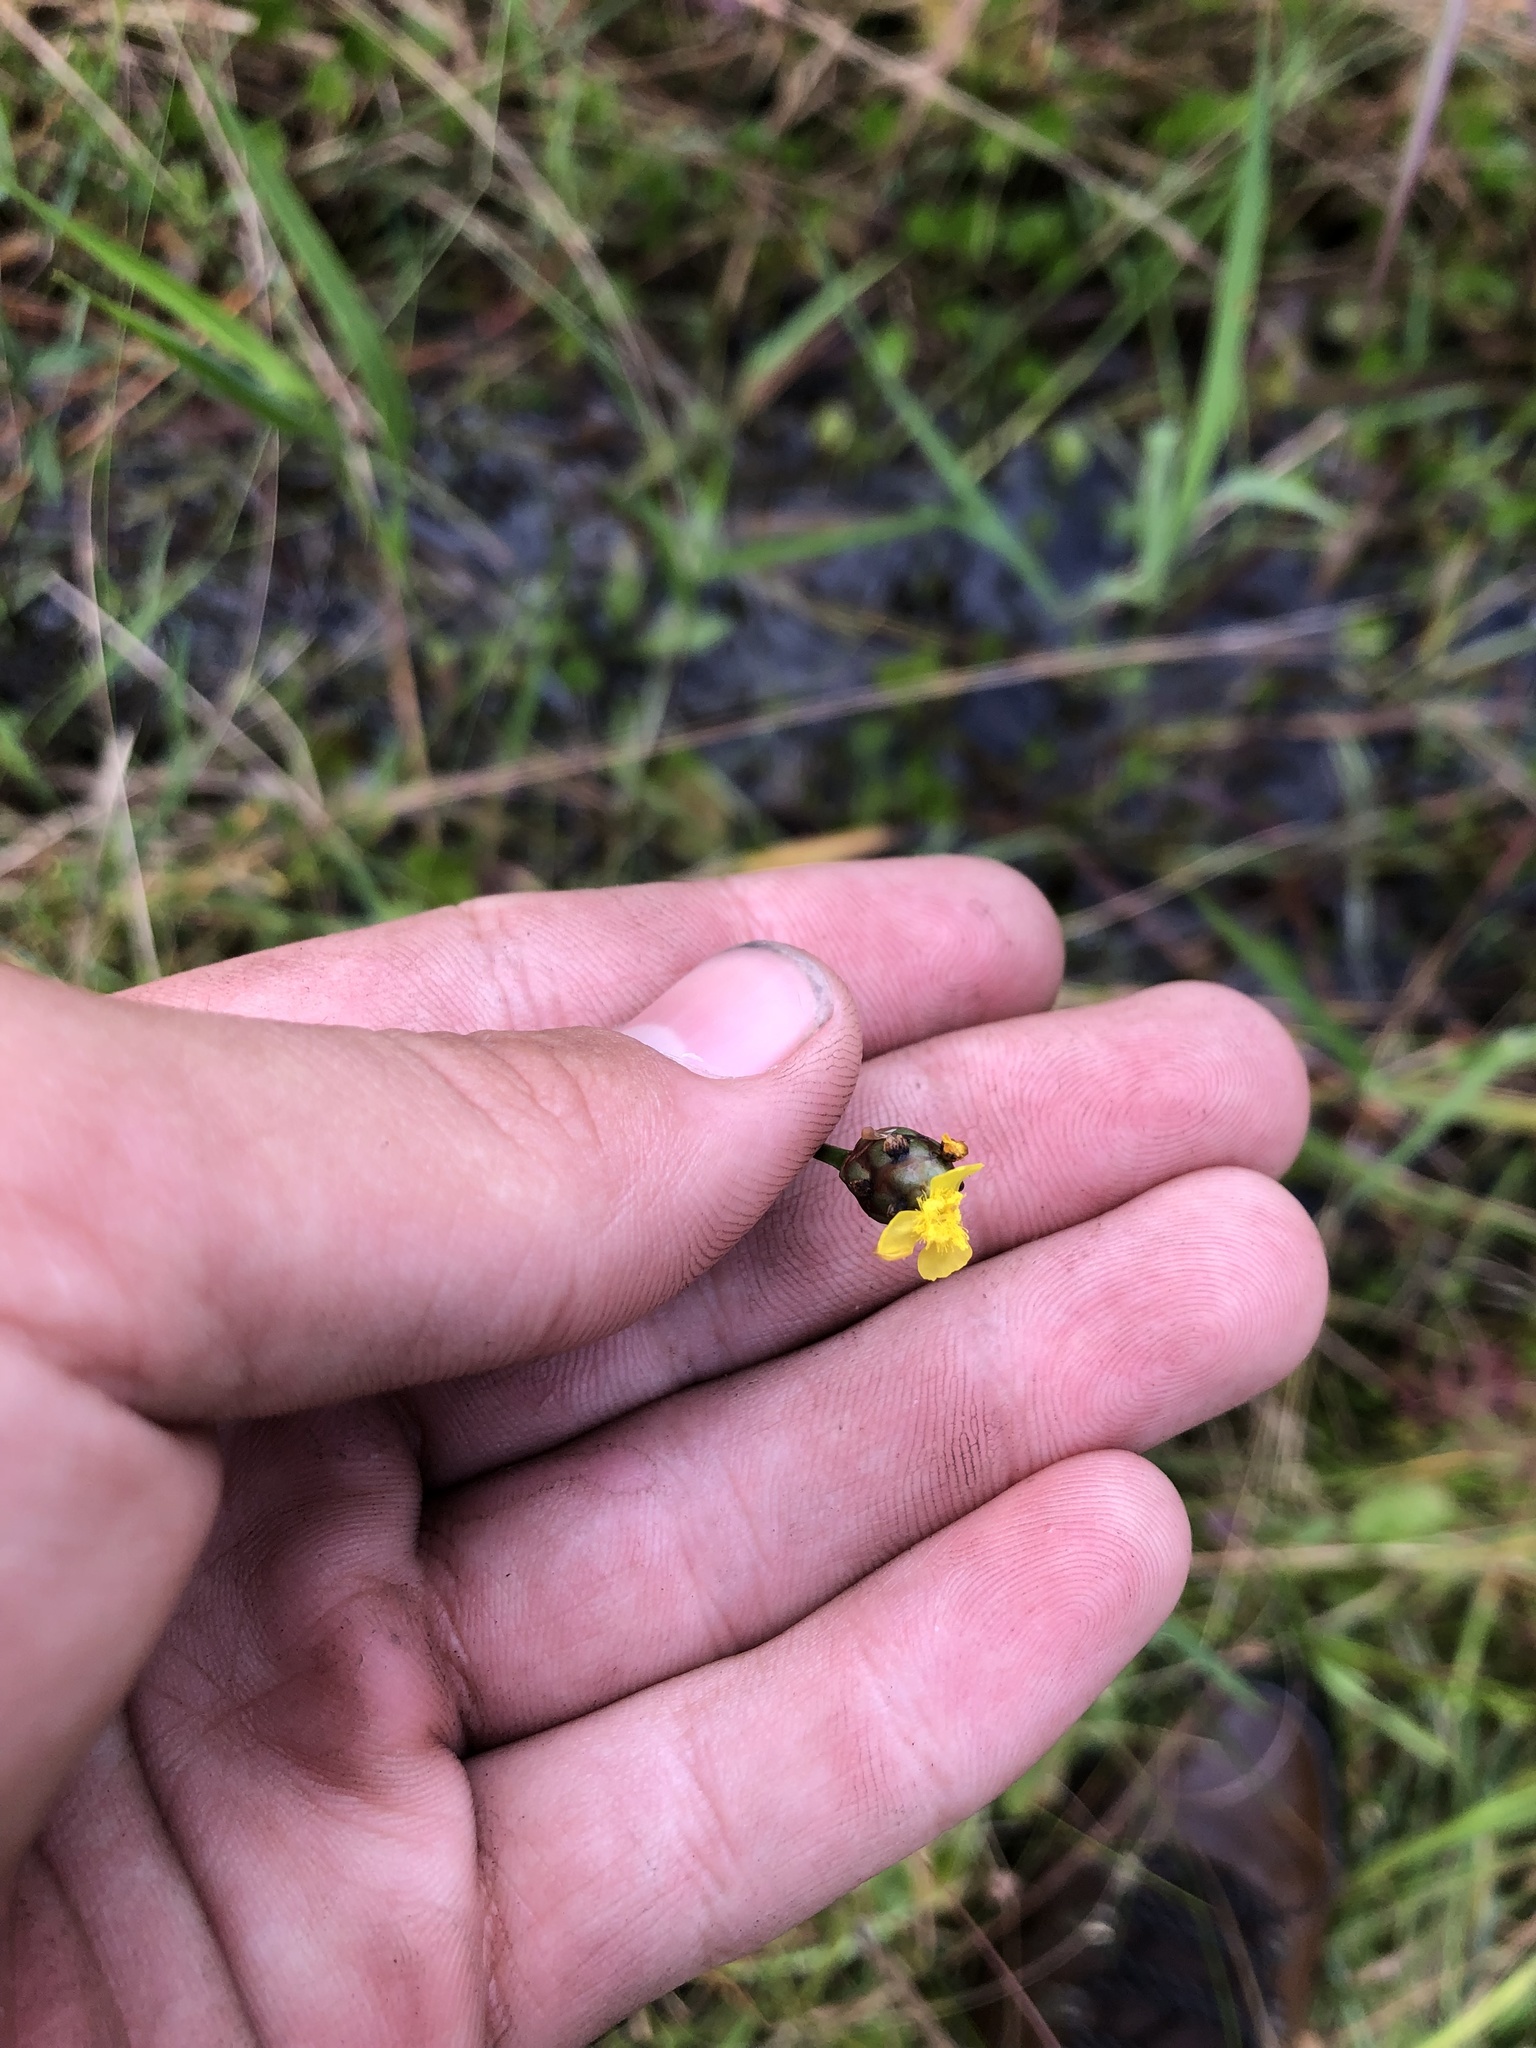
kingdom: Plantae
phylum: Tracheophyta
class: Liliopsida
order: Poales
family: Xyridaceae
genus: Xyris
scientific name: Xyris jupicai
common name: Richard's yelloweyed grass
